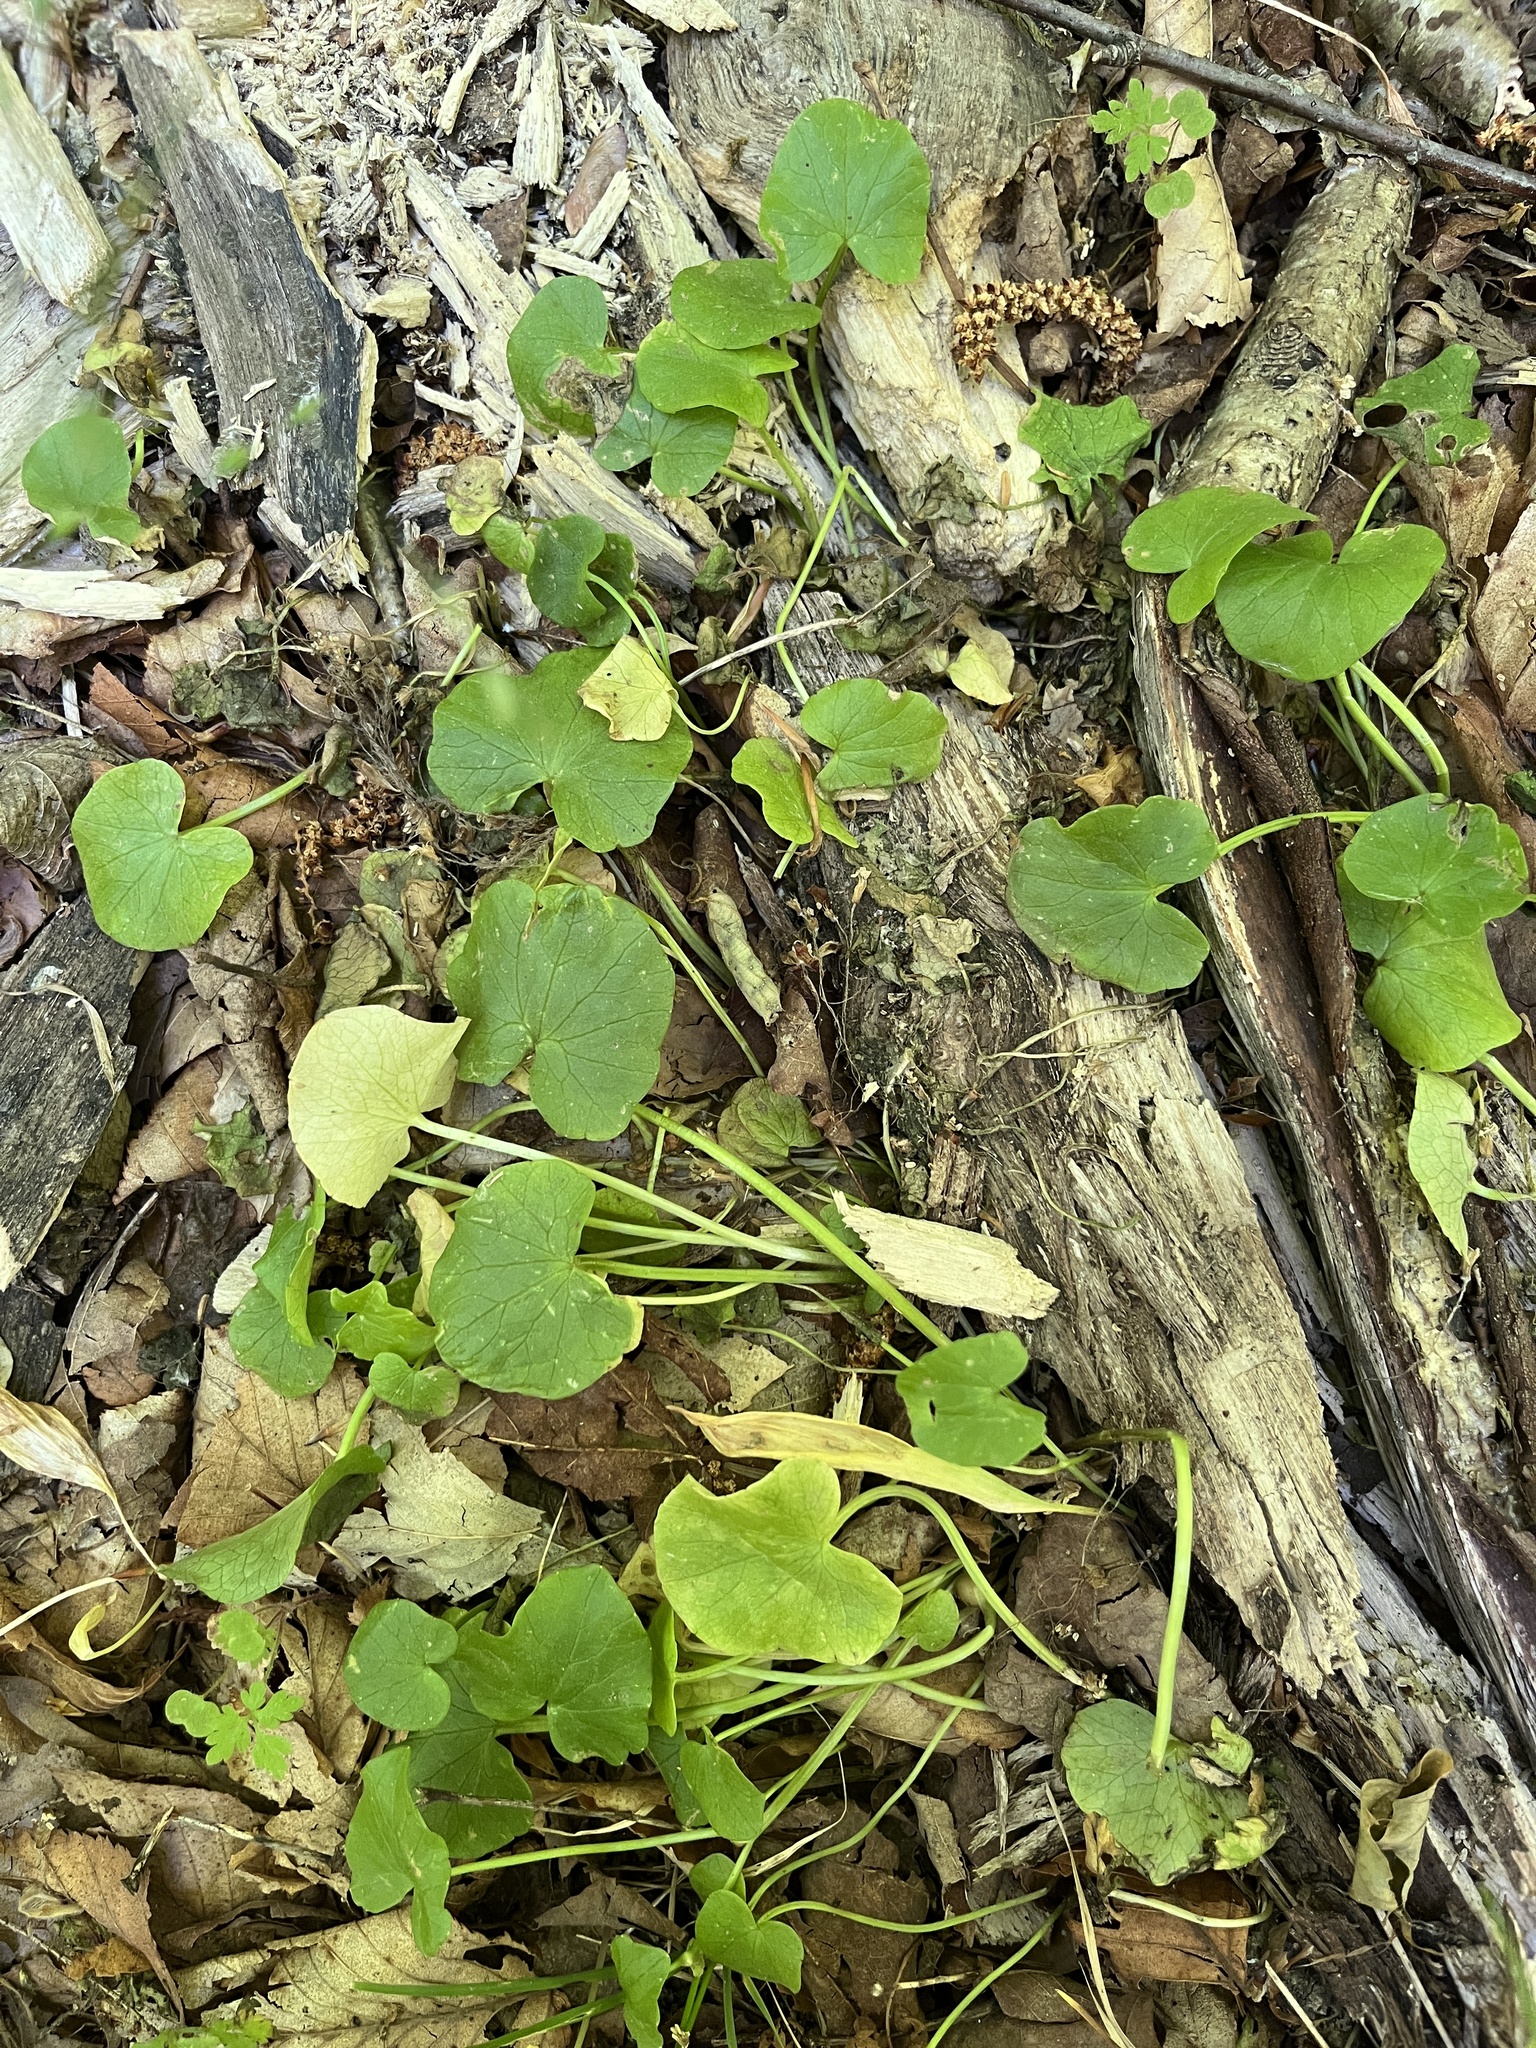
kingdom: Plantae
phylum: Tracheophyta
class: Magnoliopsida
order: Ranunculales
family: Ranunculaceae
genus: Ficaria
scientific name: Ficaria verna
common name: Lesser celandine
